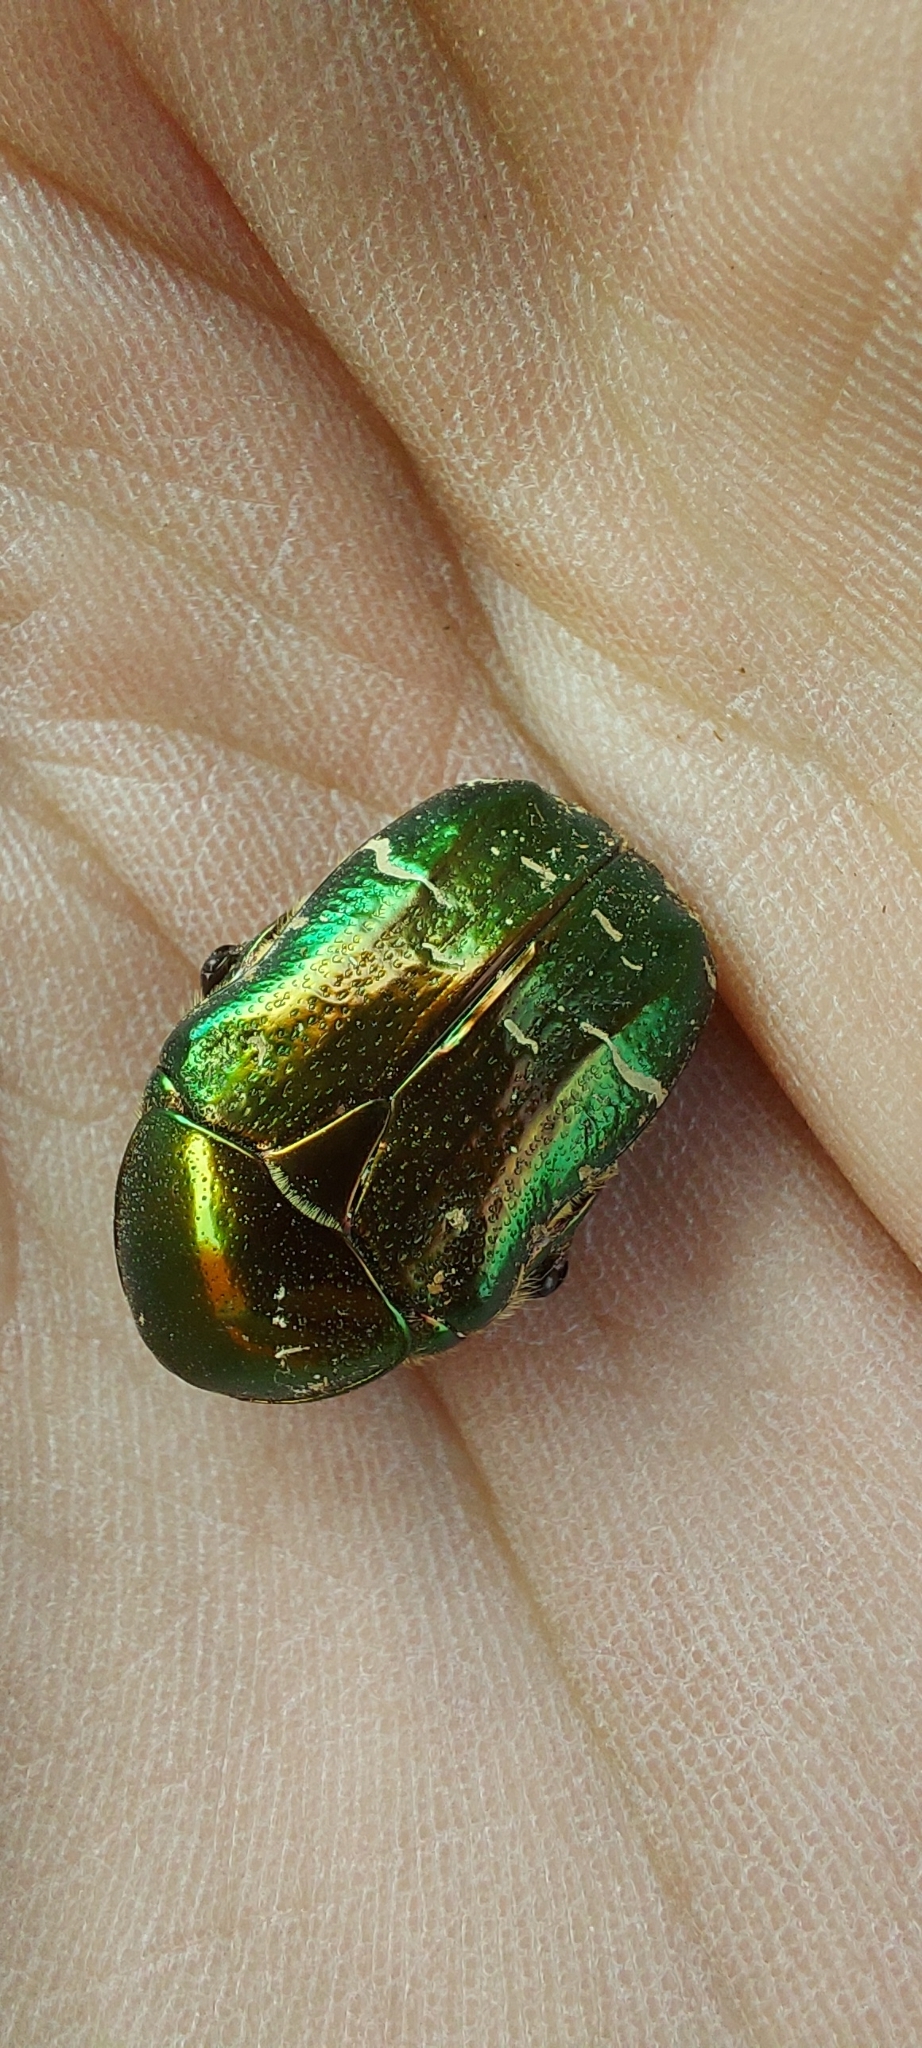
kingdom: Animalia
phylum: Arthropoda
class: Insecta
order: Coleoptera
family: Scarabaeidae
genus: Cetonia
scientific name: Cetonia aurata
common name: Rose chafer
